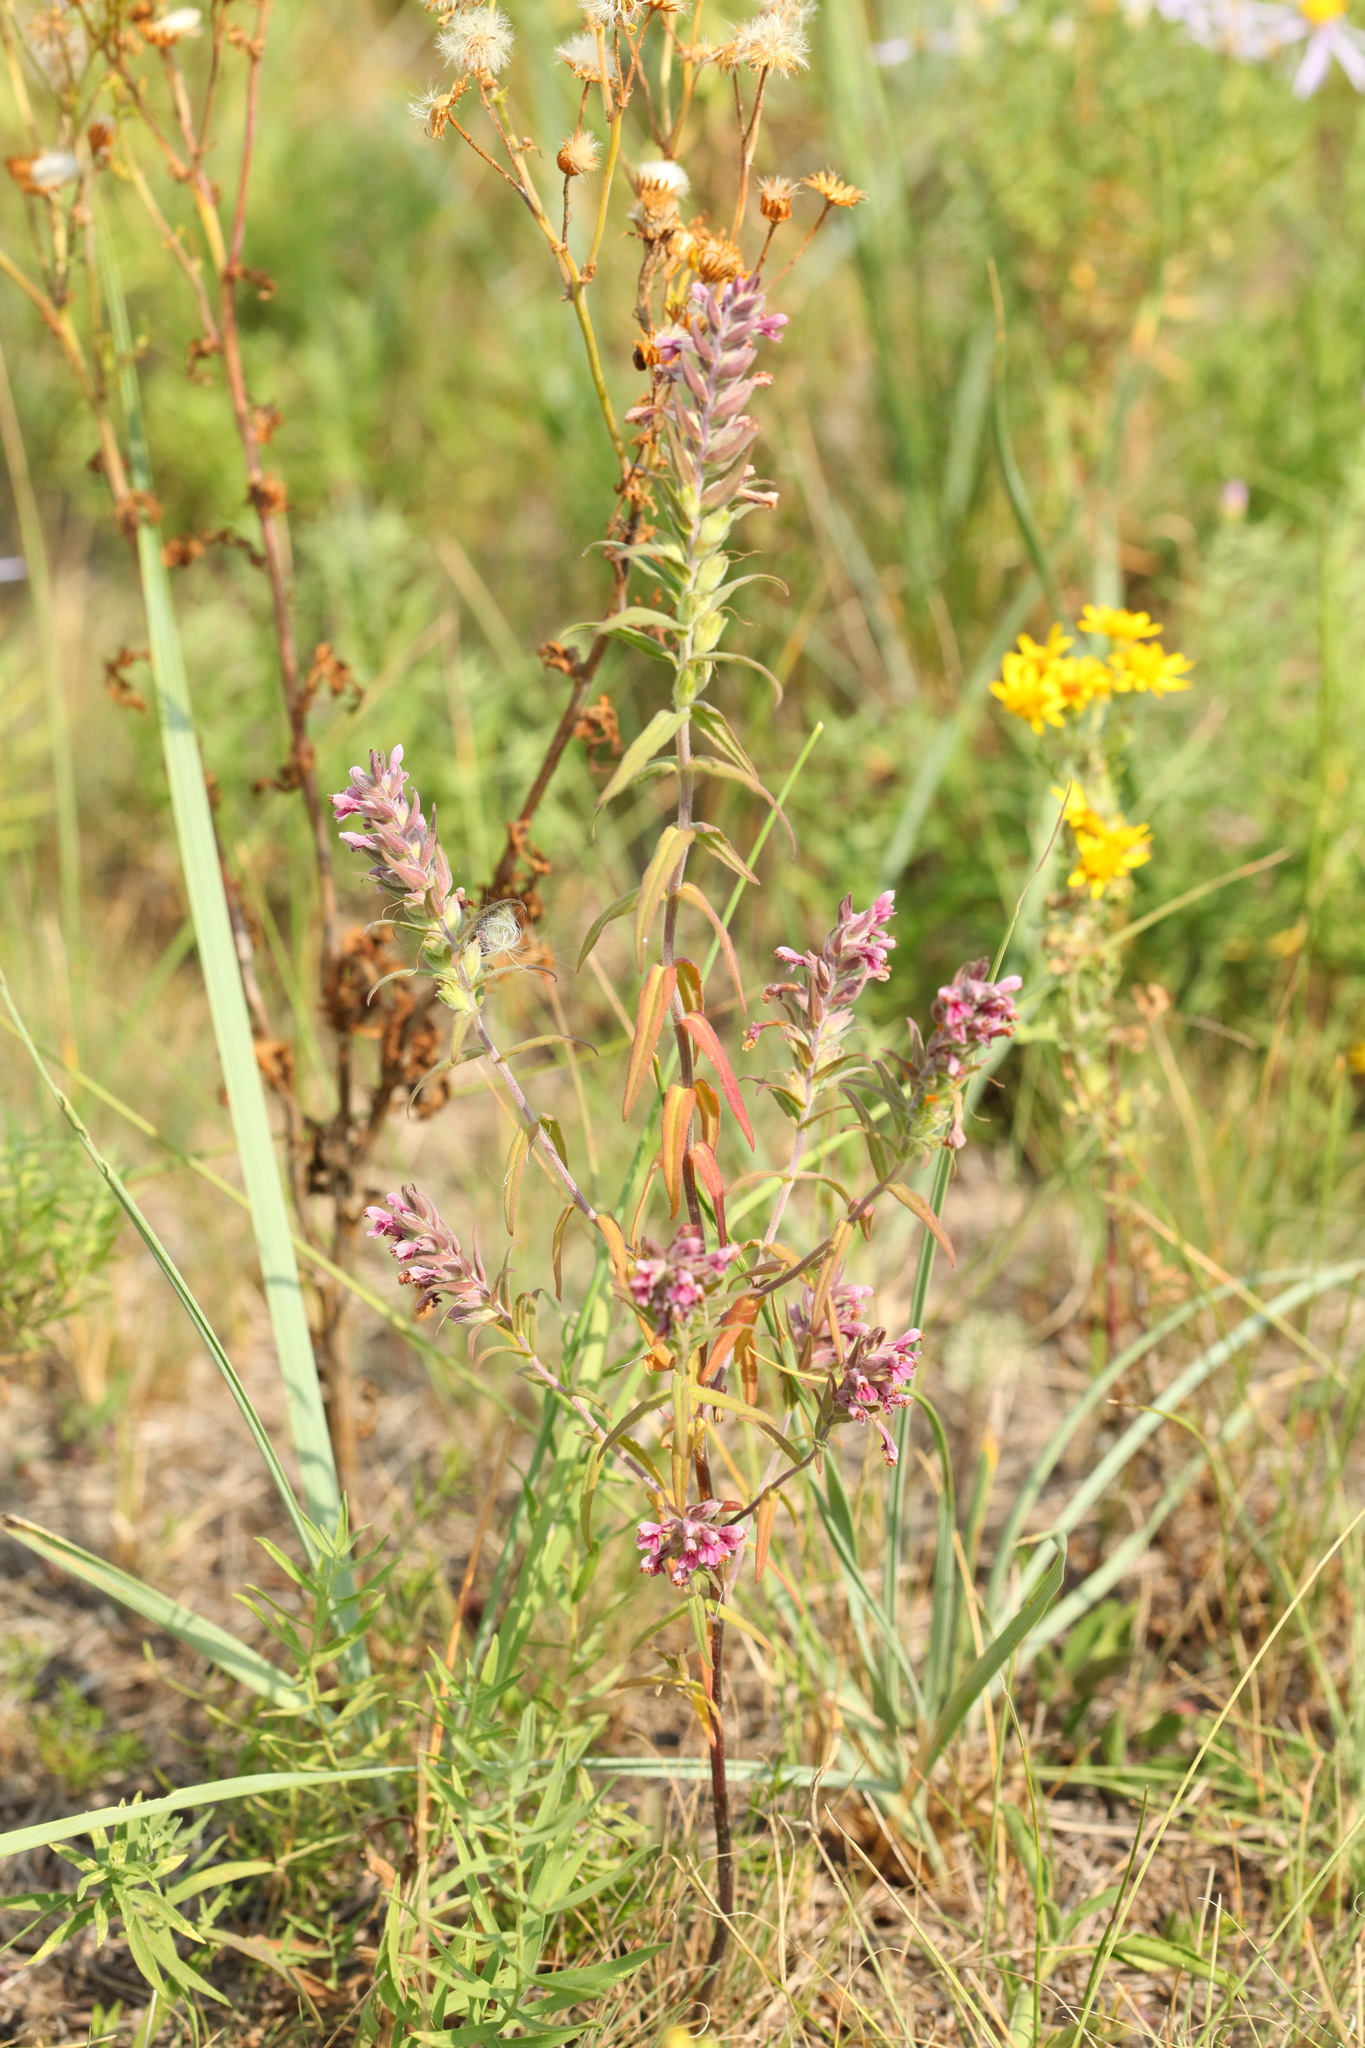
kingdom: Plantae
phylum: Tracheophyta
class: Magnoliopsida
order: Lamiales
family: Orobanchaceae
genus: Odontites
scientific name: Odontites vulgaris
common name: Broomrape
